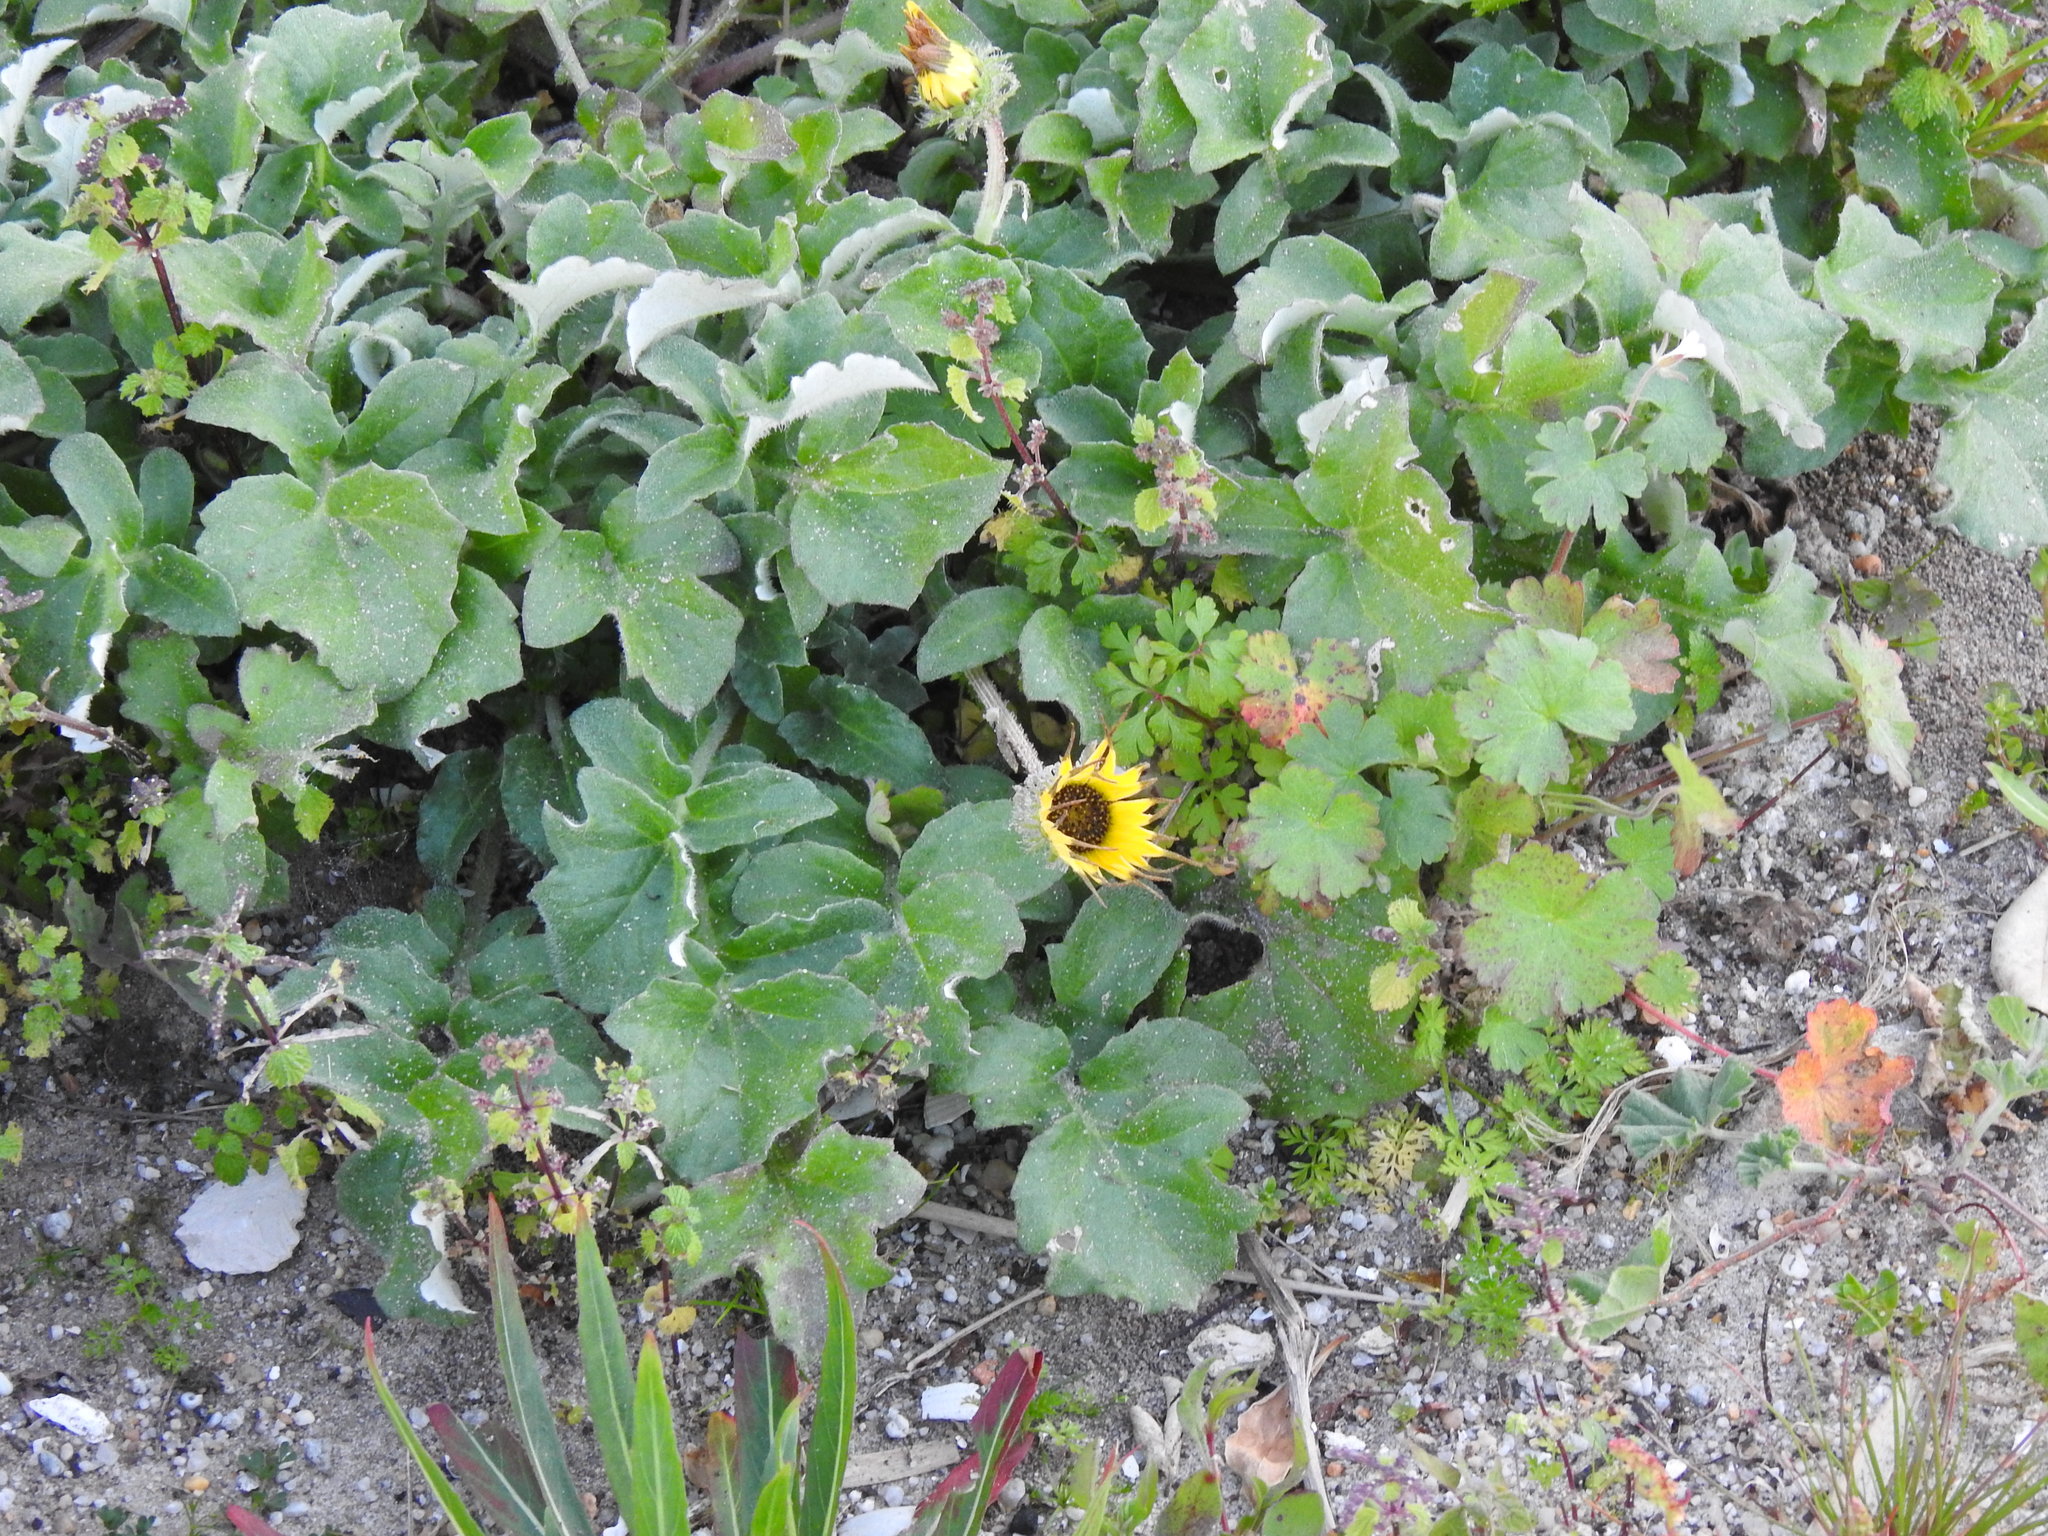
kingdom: Plantae
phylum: Tracheophyta
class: Magnoliopsida
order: Asterales
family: Asteraceae
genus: Arctotheca
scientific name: Arctotheca calendula
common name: Capeweed
